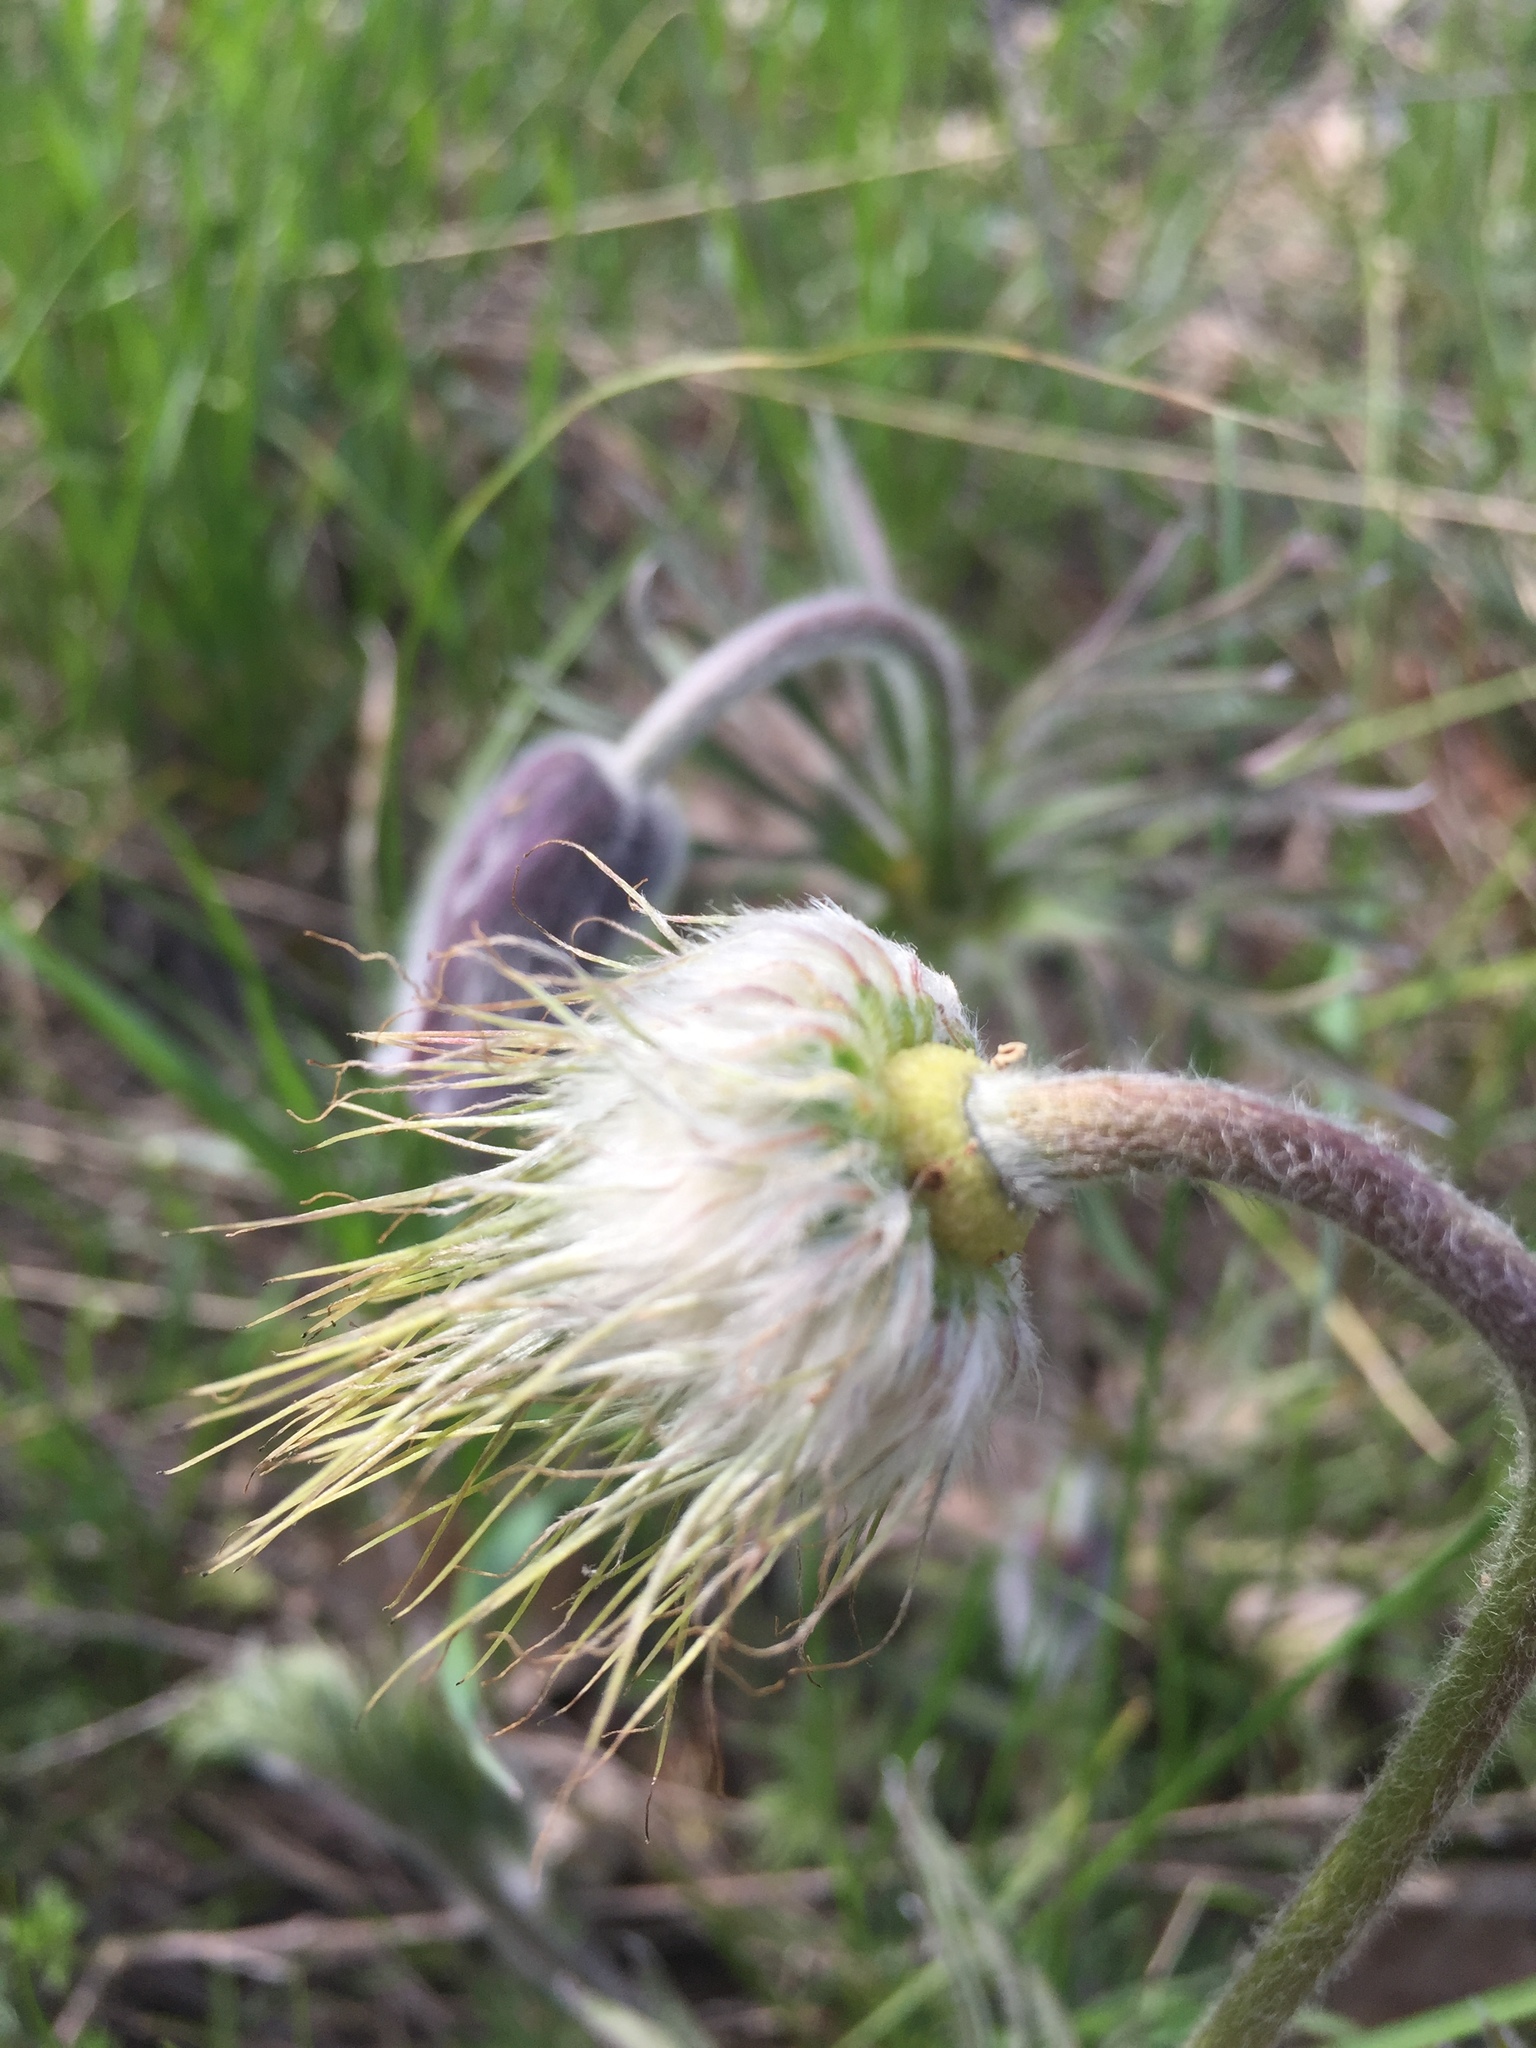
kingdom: Plantae
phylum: Tracheophyta
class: Magnoliopsida
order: Ranunculales
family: Ranunculaceae
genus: Pulsatilla
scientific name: Pulsatilla pratensis
